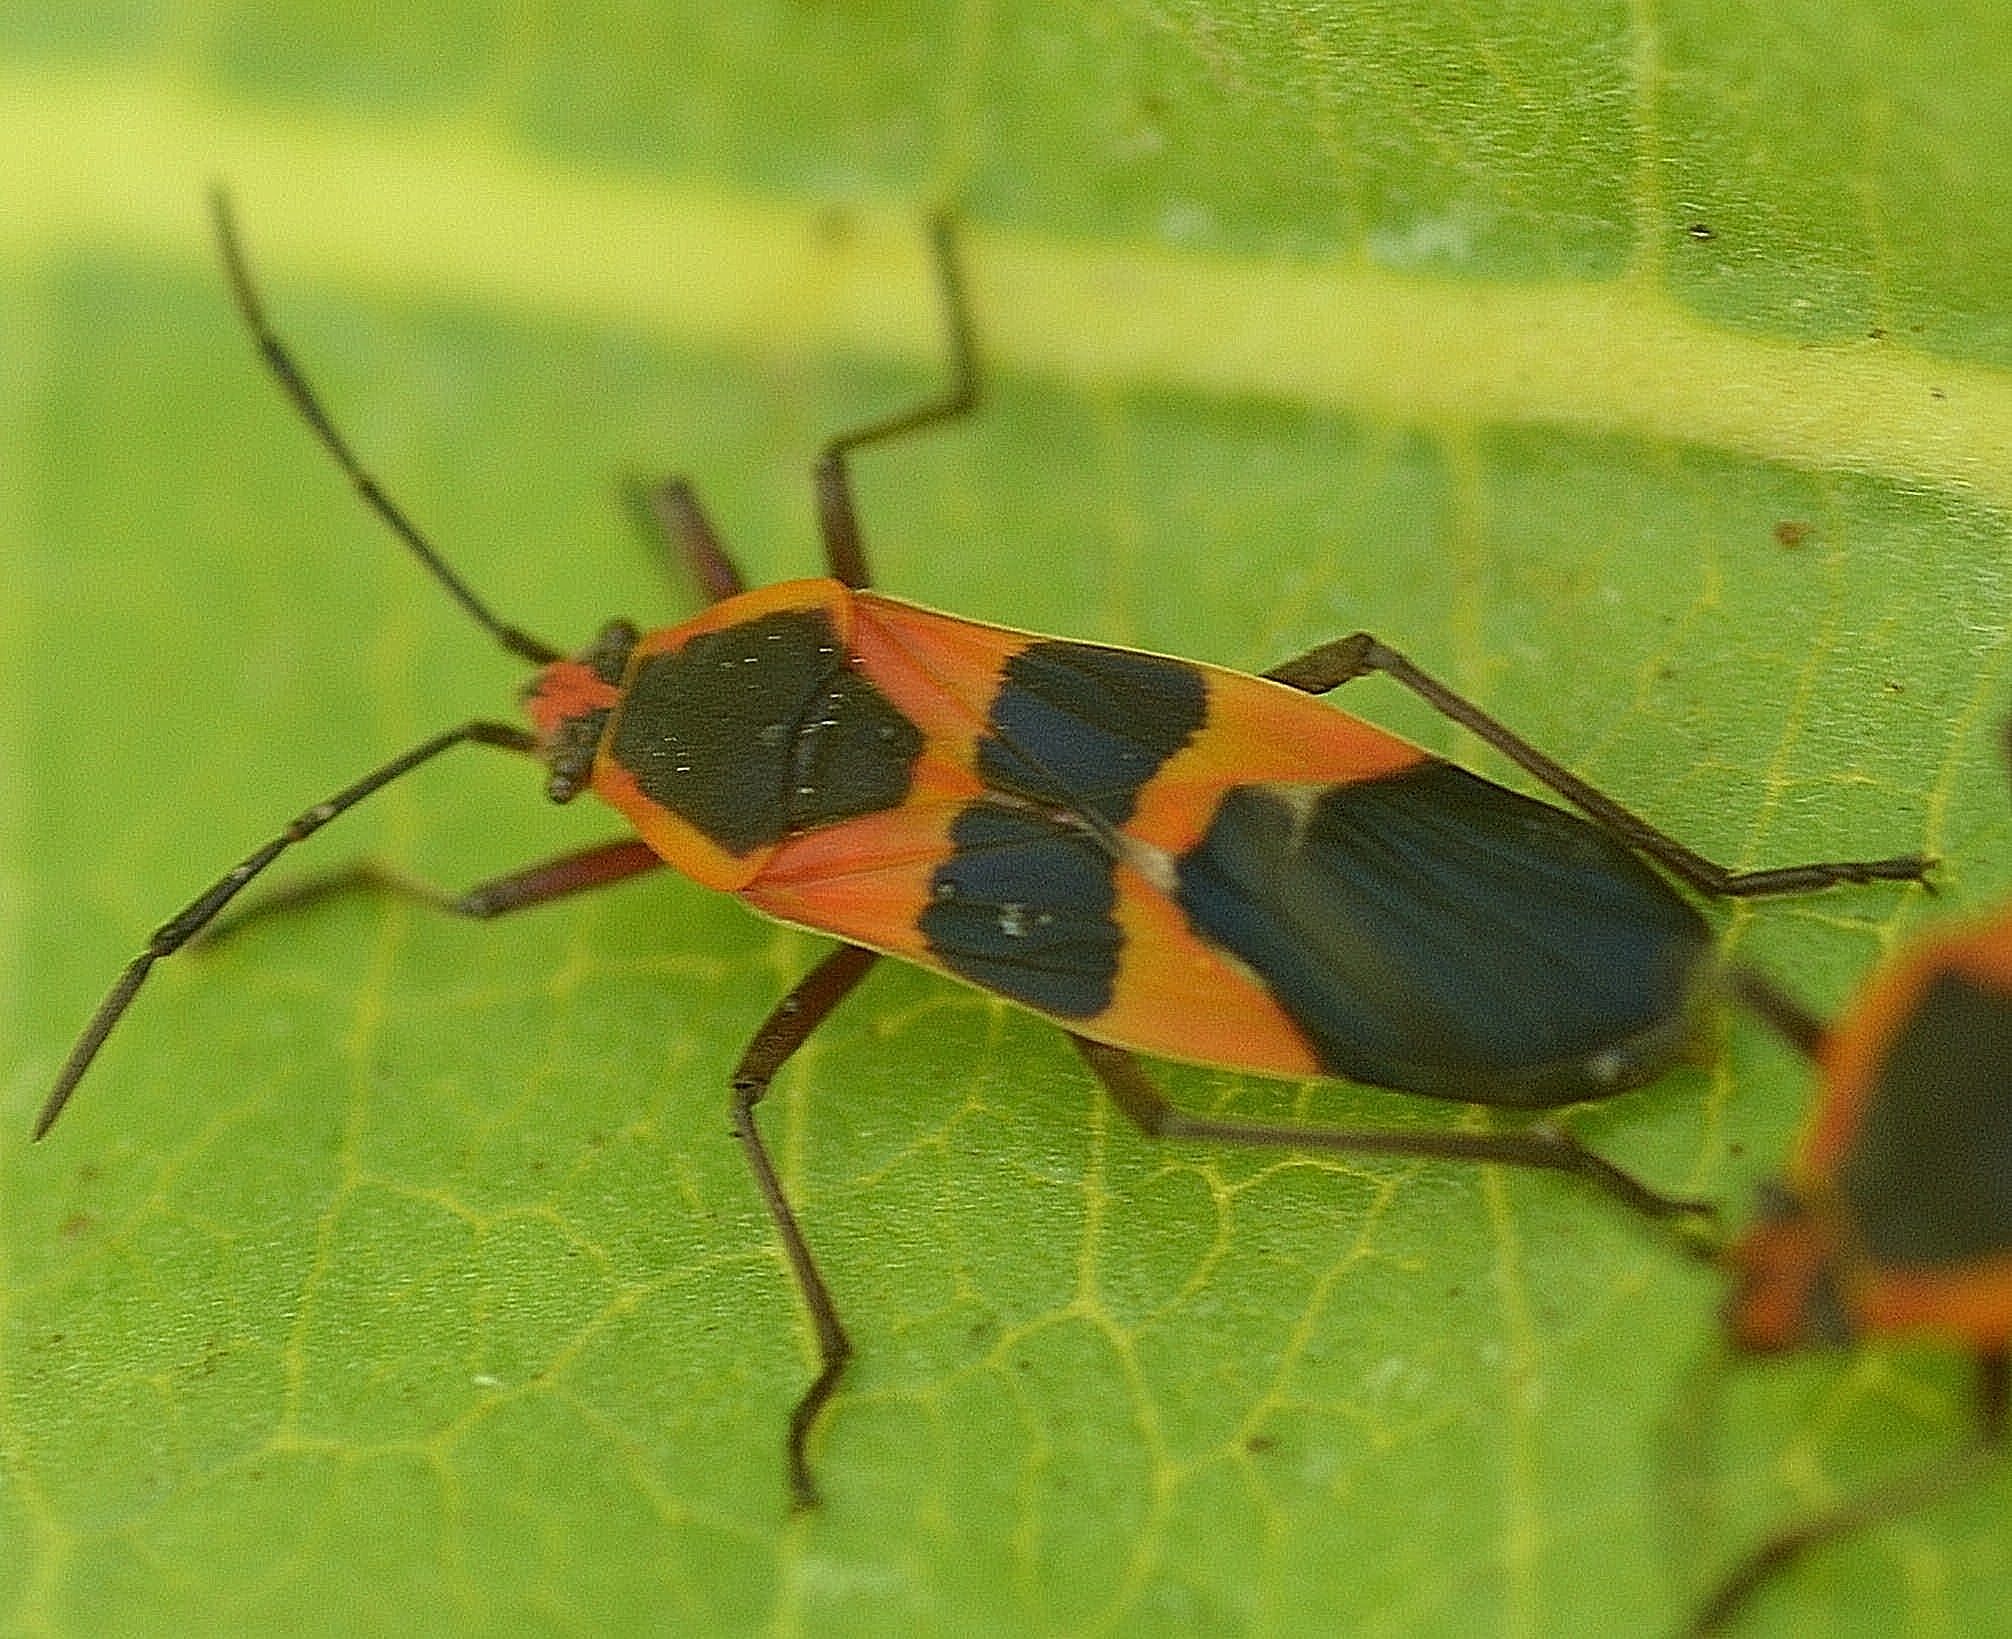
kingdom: Animalia
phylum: Arthropoda
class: Insecta
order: Hemiptera
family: Lygaeidae
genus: Oncopeltus
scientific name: Oncopeltus fasciatus
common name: Large milkweed bug
